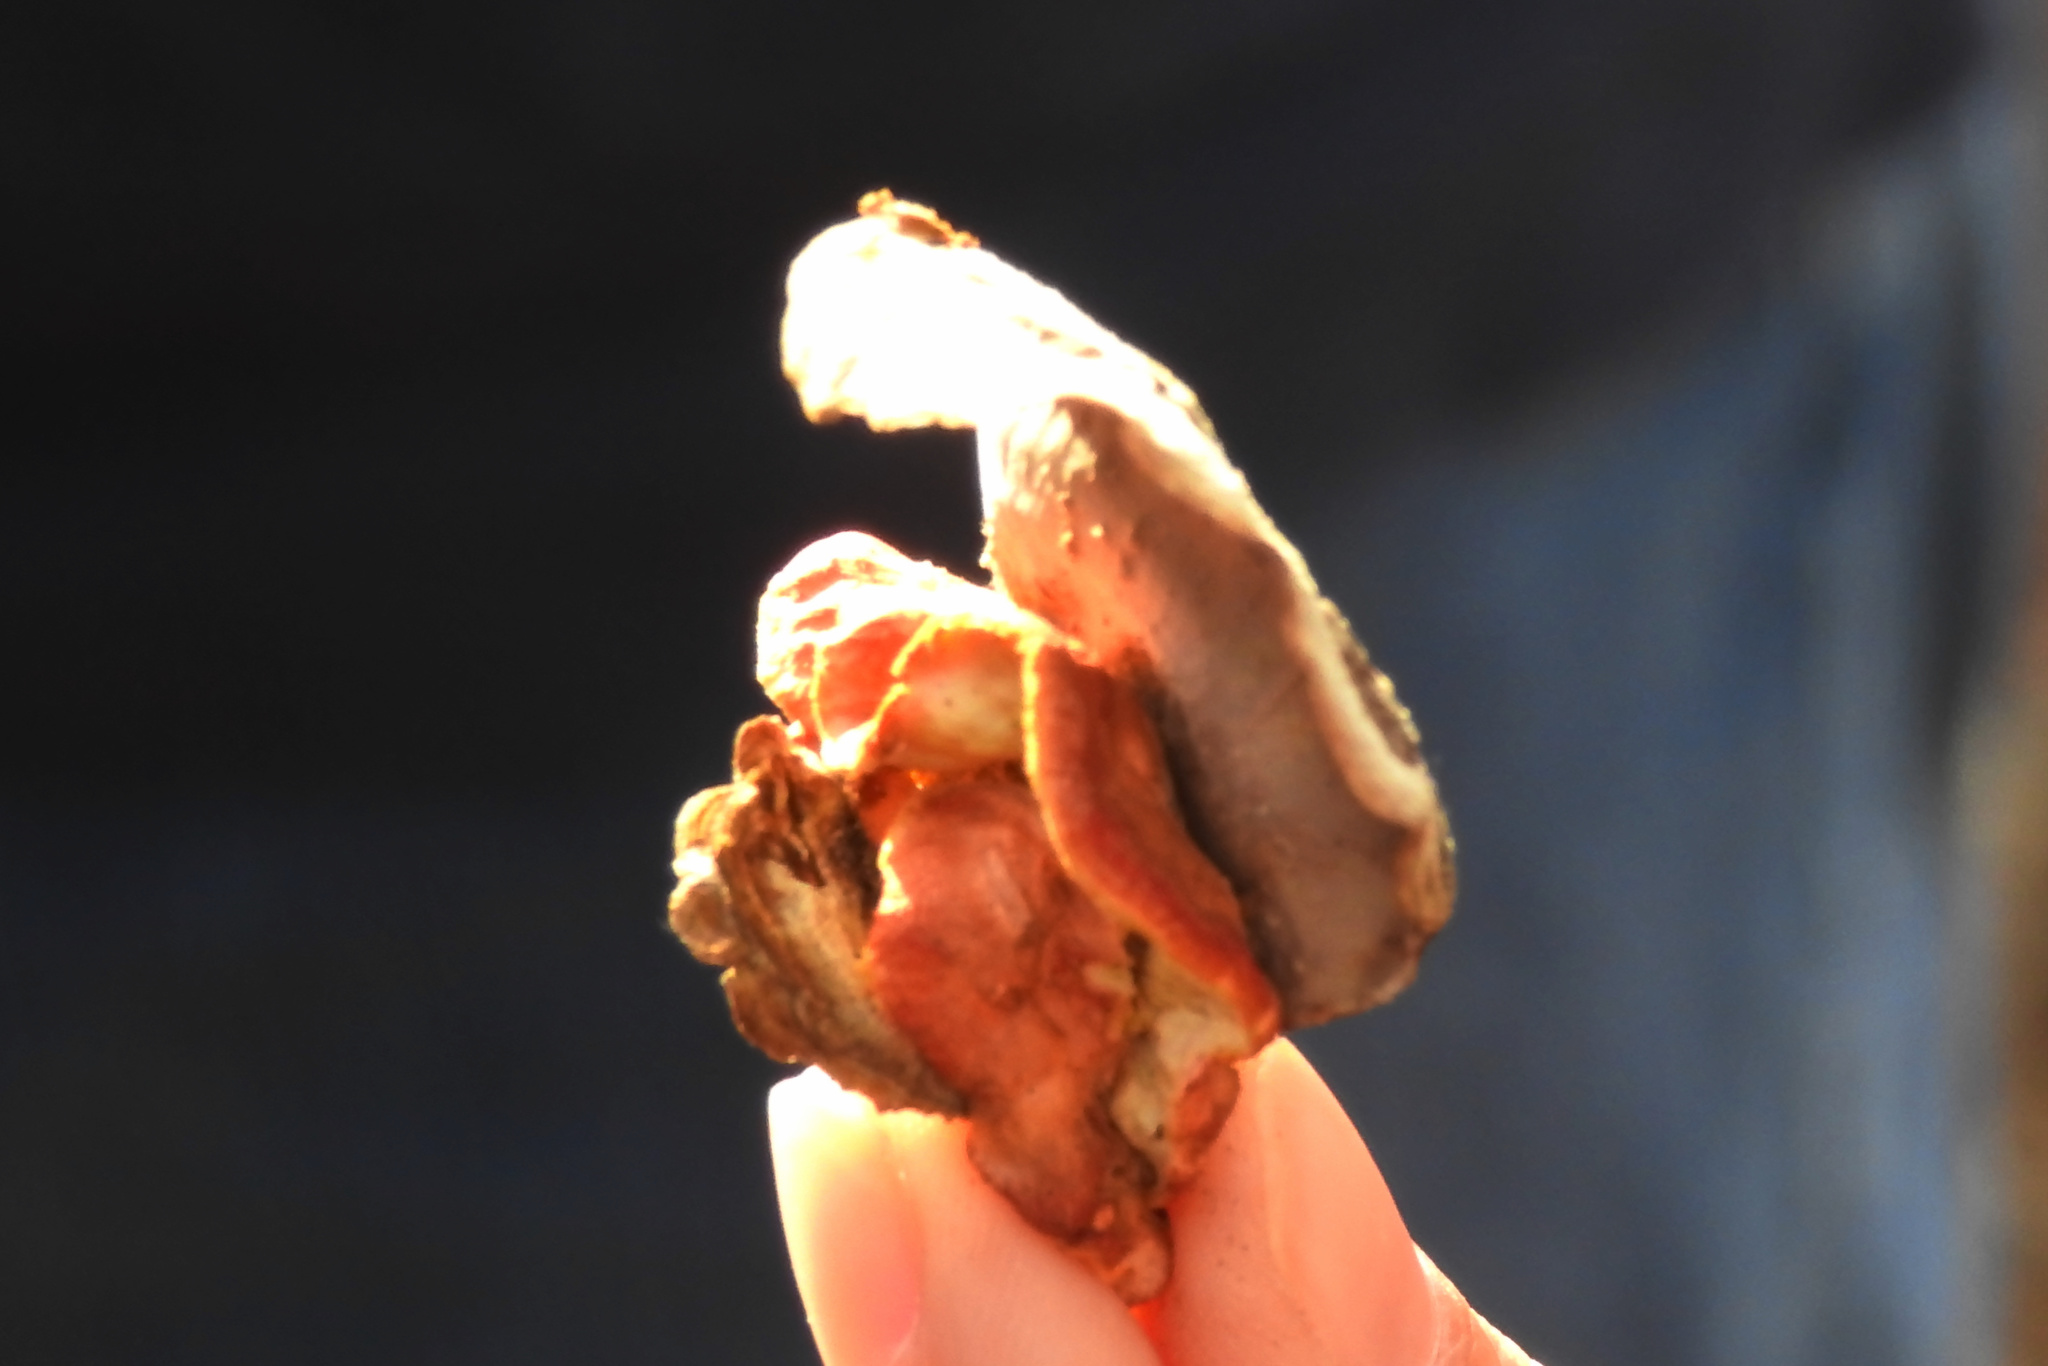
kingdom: Fungi
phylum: Basidiomycota
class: Agaricomycetes
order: Polyporales
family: Irpicaceae
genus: Byssomerulius
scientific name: Byssomerulius incarnatus
